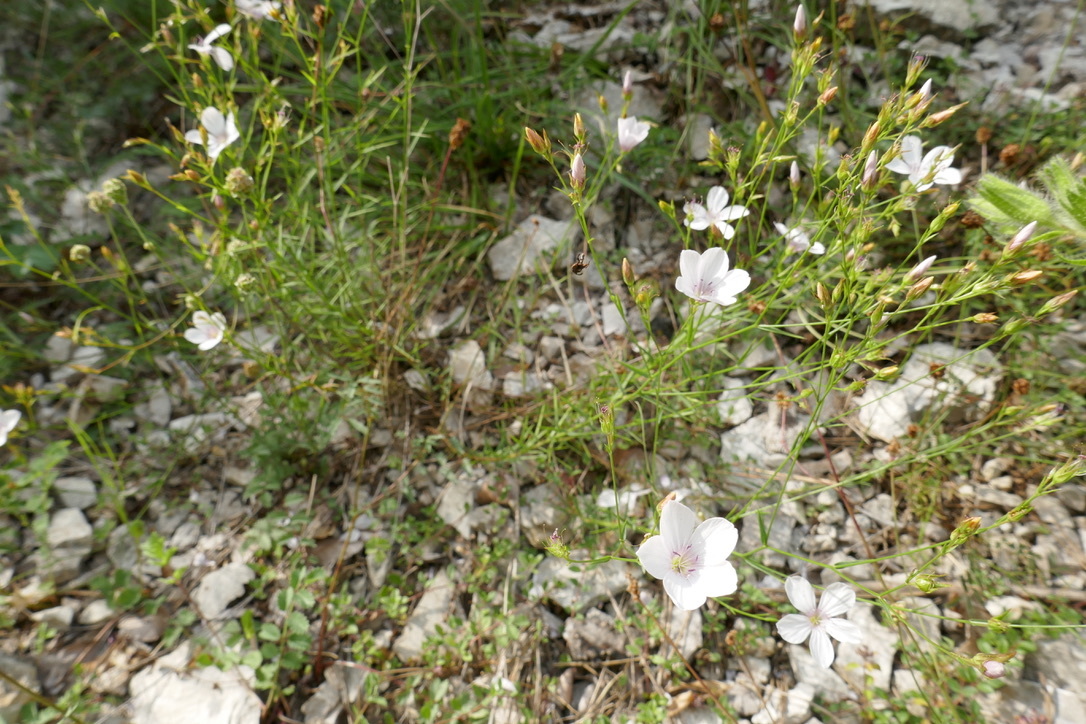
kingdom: Plantae
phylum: Tracheophyta
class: Magnoliopsida
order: Malpighiales
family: Linaceae
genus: Linum
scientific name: Linum tenuifolium
